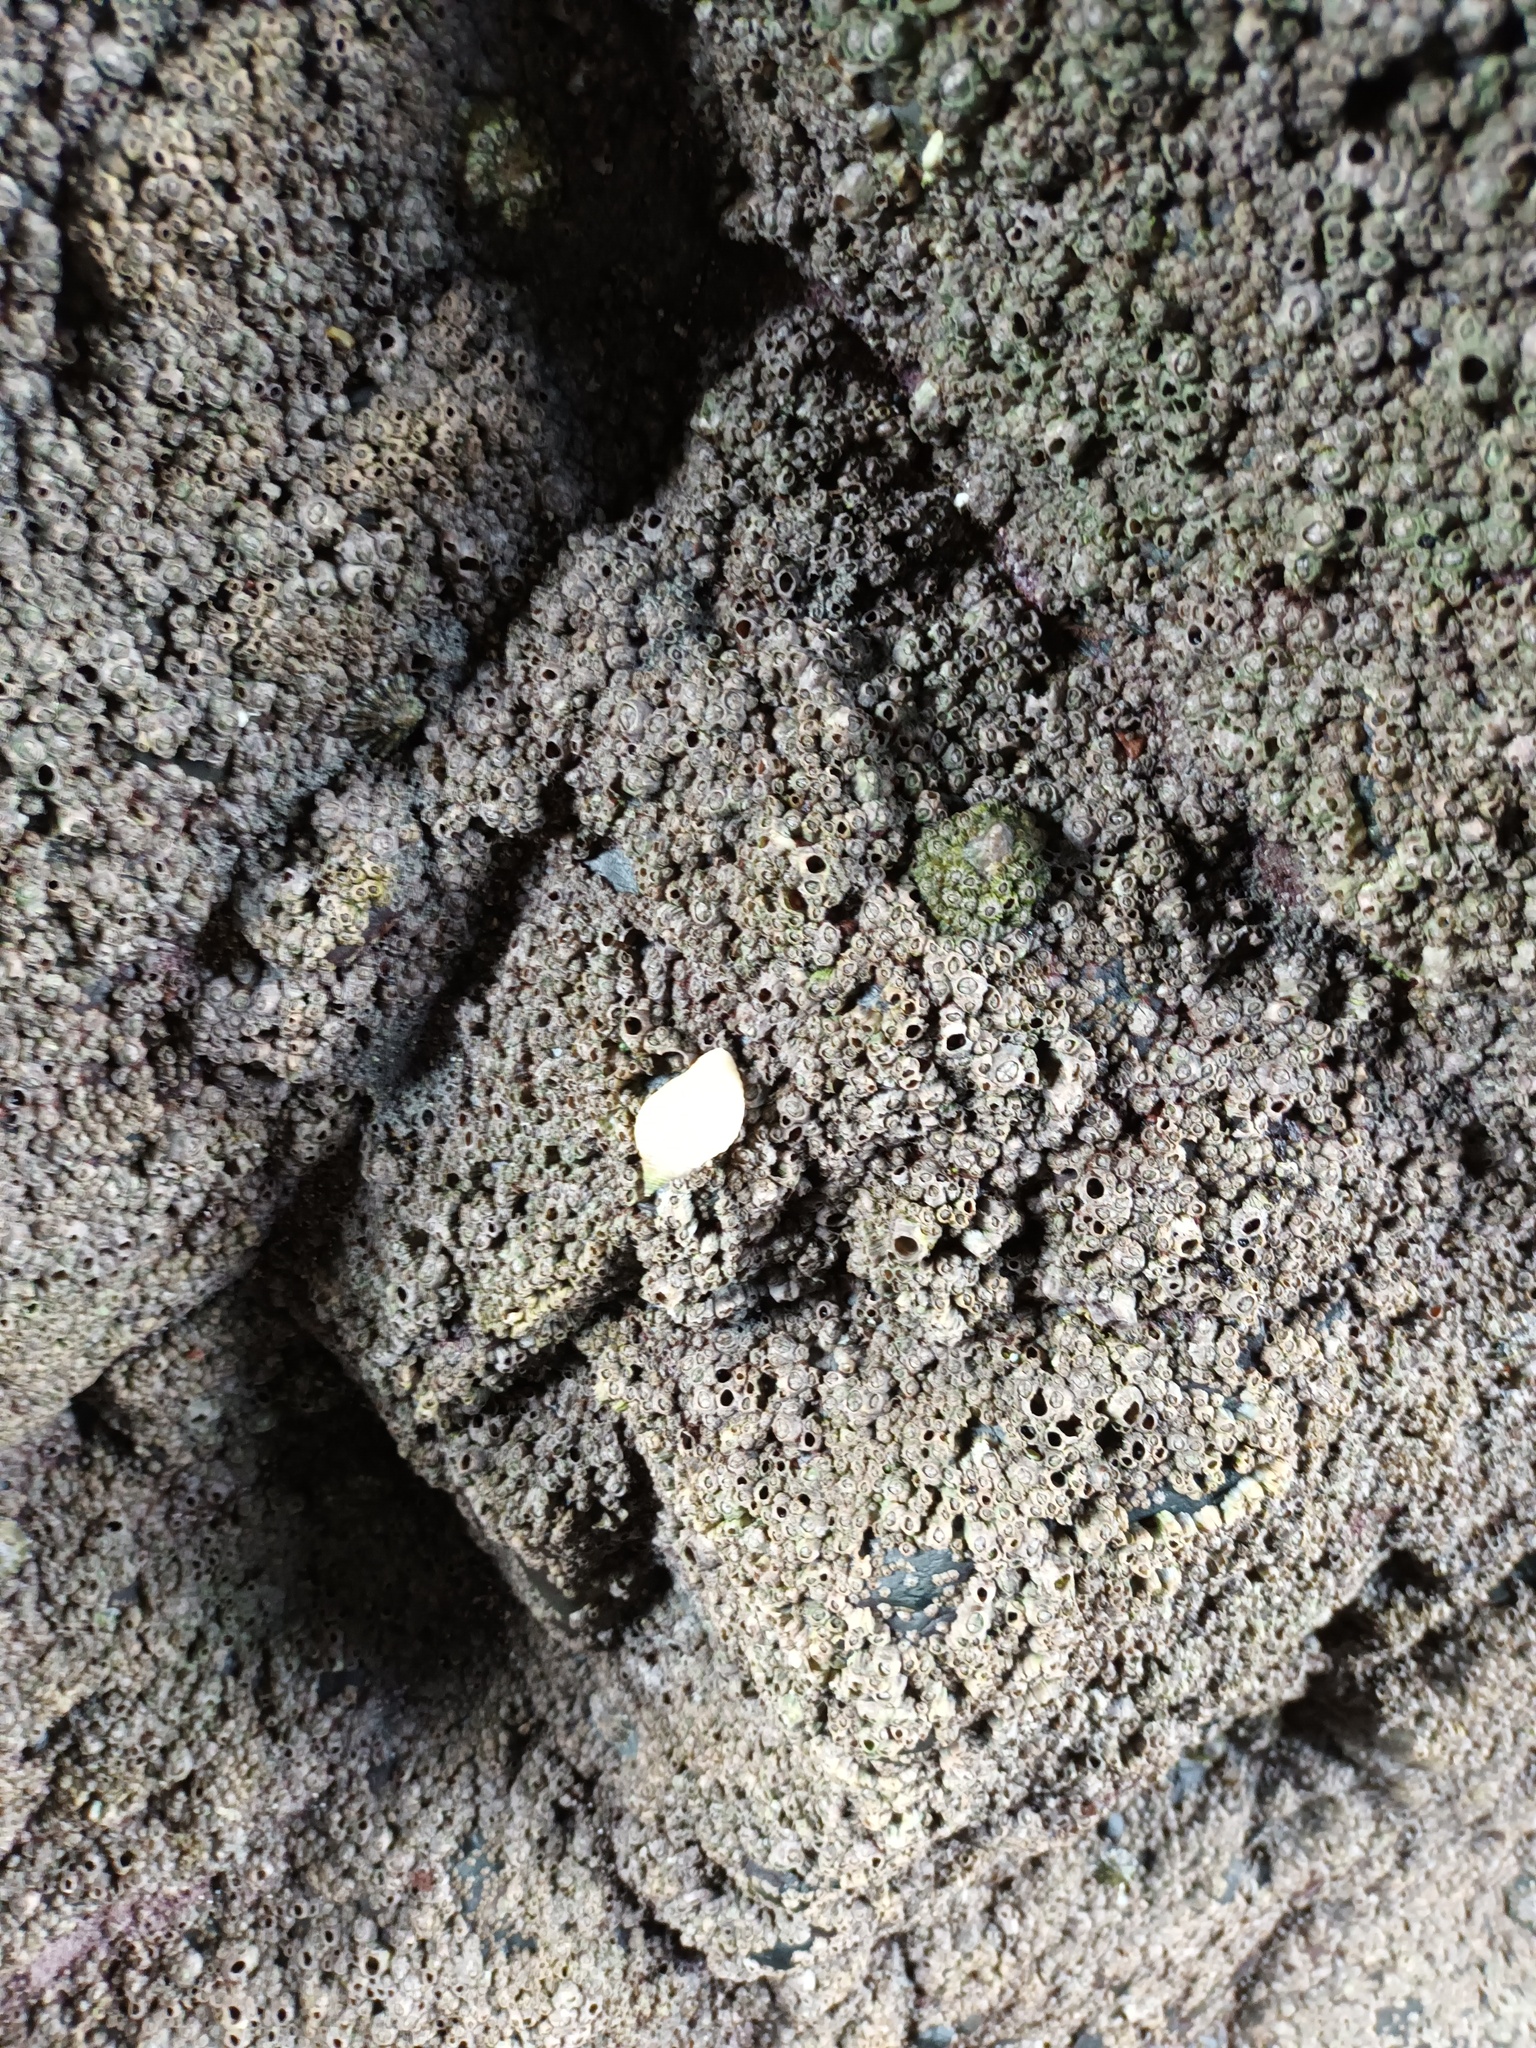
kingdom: Animalia
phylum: Mollusca
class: Gastropoda
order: Neogastropoda
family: Muricidae
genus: Nucella
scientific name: Nucella lapillus
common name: Dog whelk
